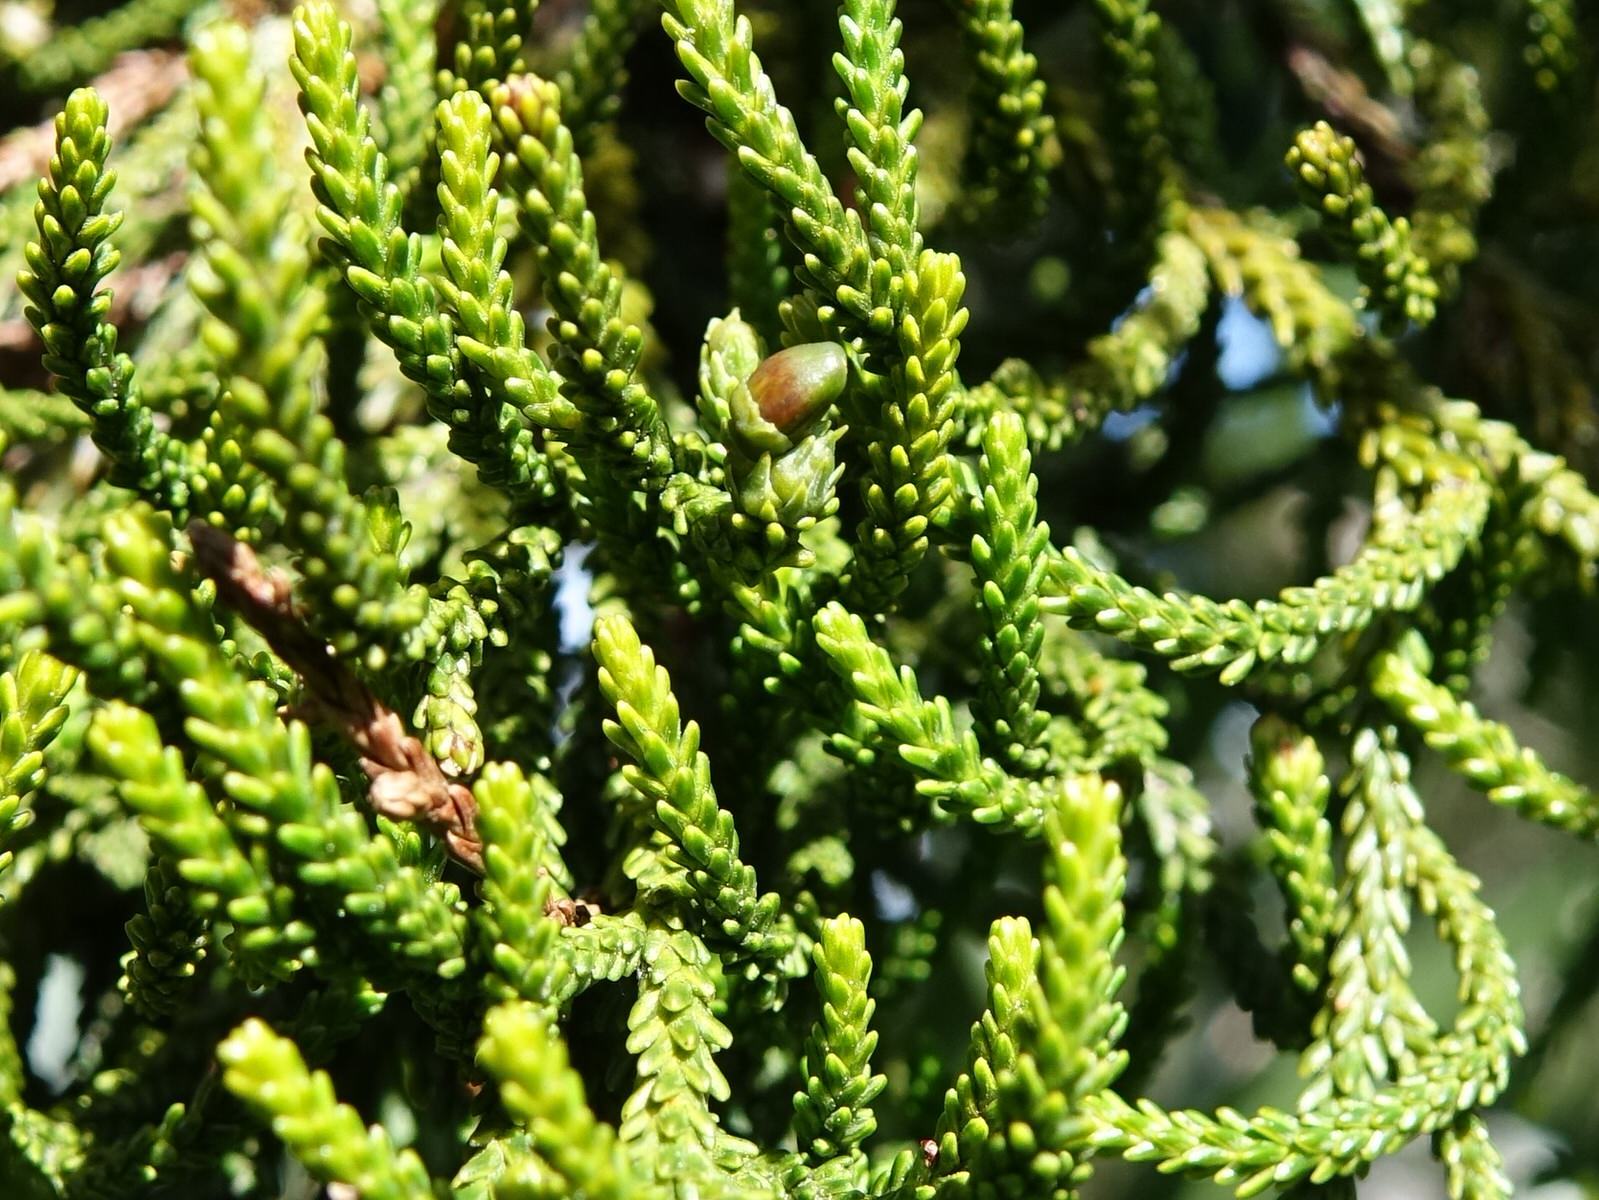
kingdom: Plantae
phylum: Tracheophyta
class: Pinopsida
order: Pinales
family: Podocarpaceae
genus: Dacrydium
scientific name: Dacrydium cupressinum
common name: Red pine
